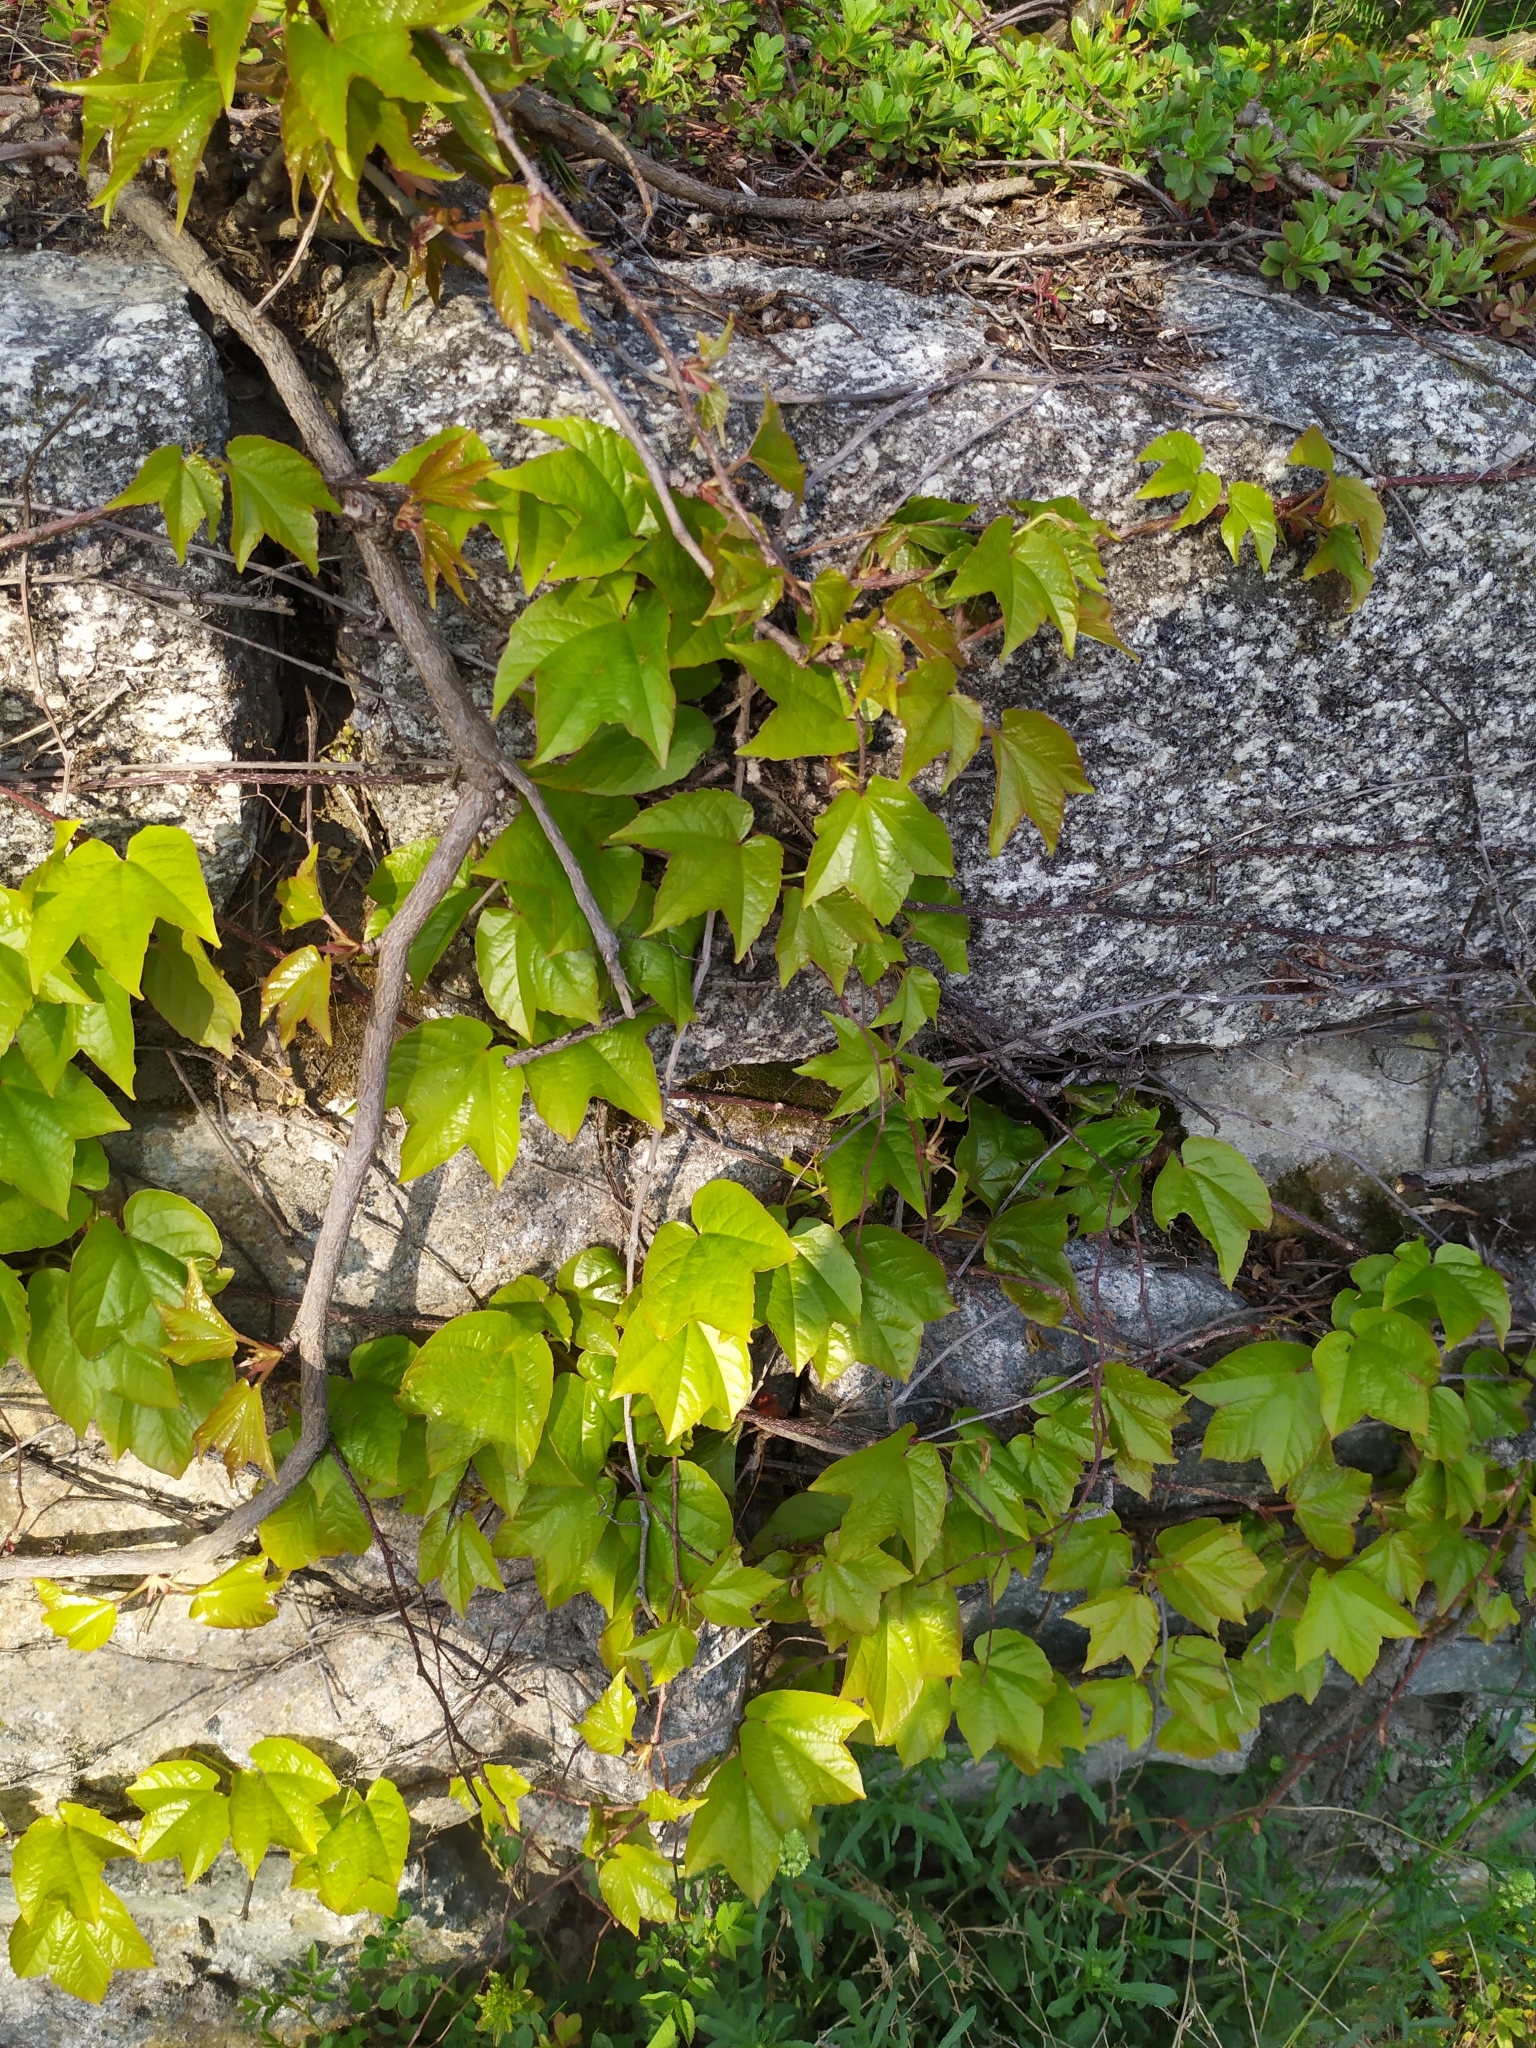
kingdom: Plantae
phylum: Tracheophyta
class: Magnoliopsida
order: Vitales
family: Vitaceae
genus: Parthenocissus
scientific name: Parthenocissus tricuspidata
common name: Boston ivy
